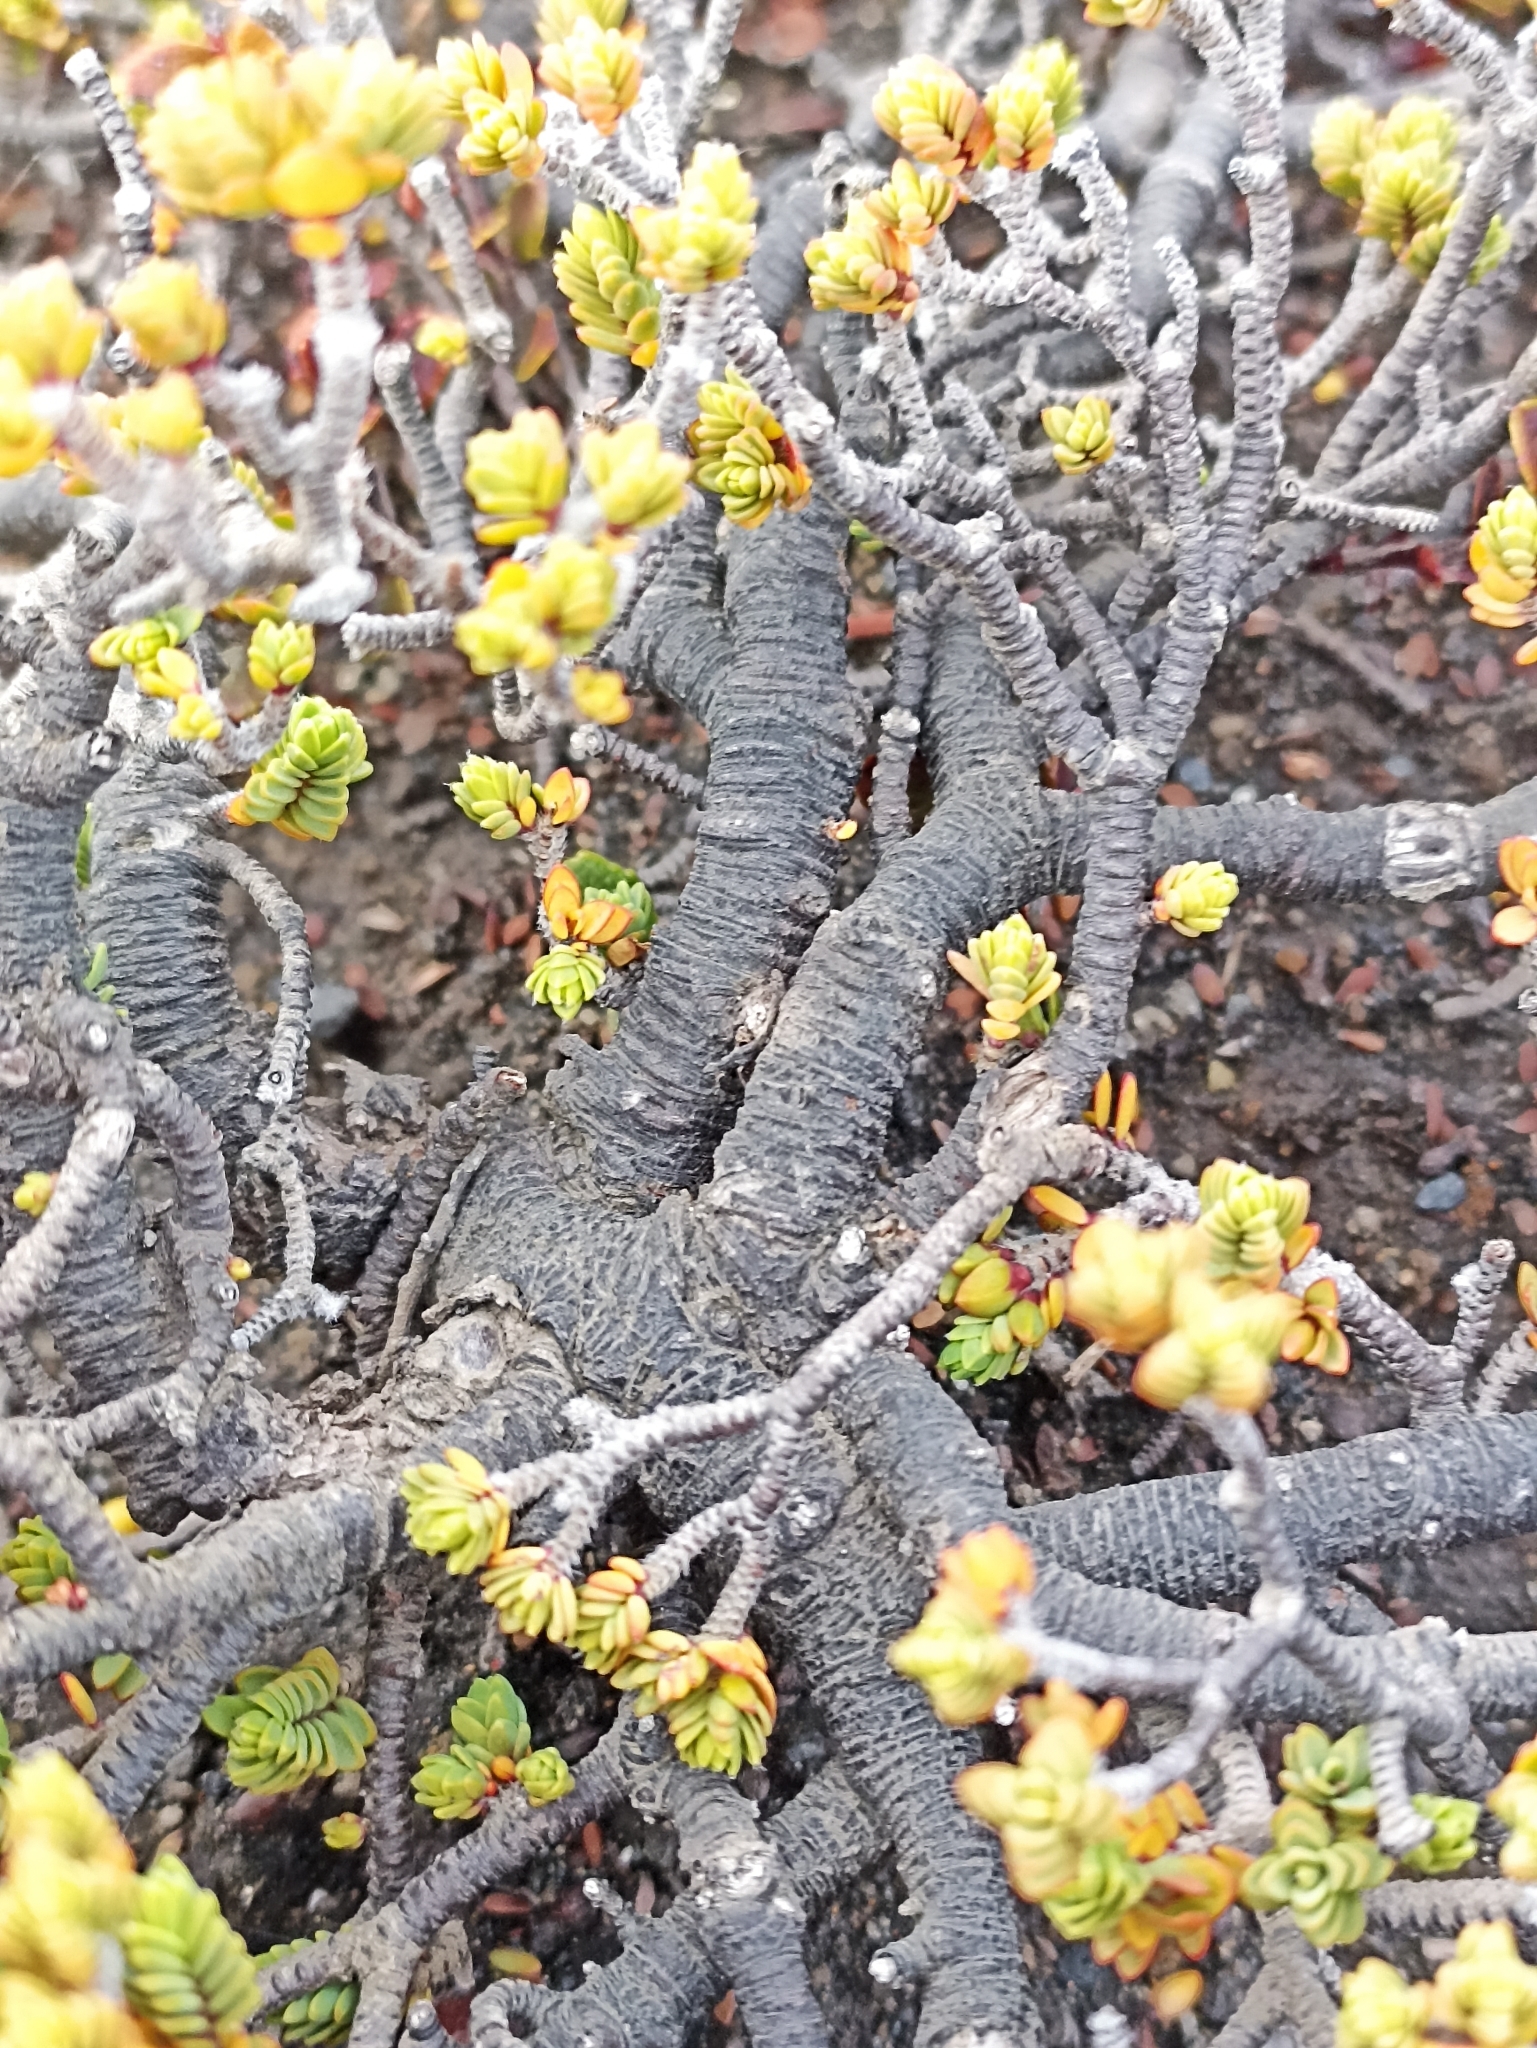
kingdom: Plantae
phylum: Tracheophyta
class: Magnoliopsida
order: Malvales
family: Thymelaeaceae
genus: Pimelea
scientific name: Pimelea microphylla
